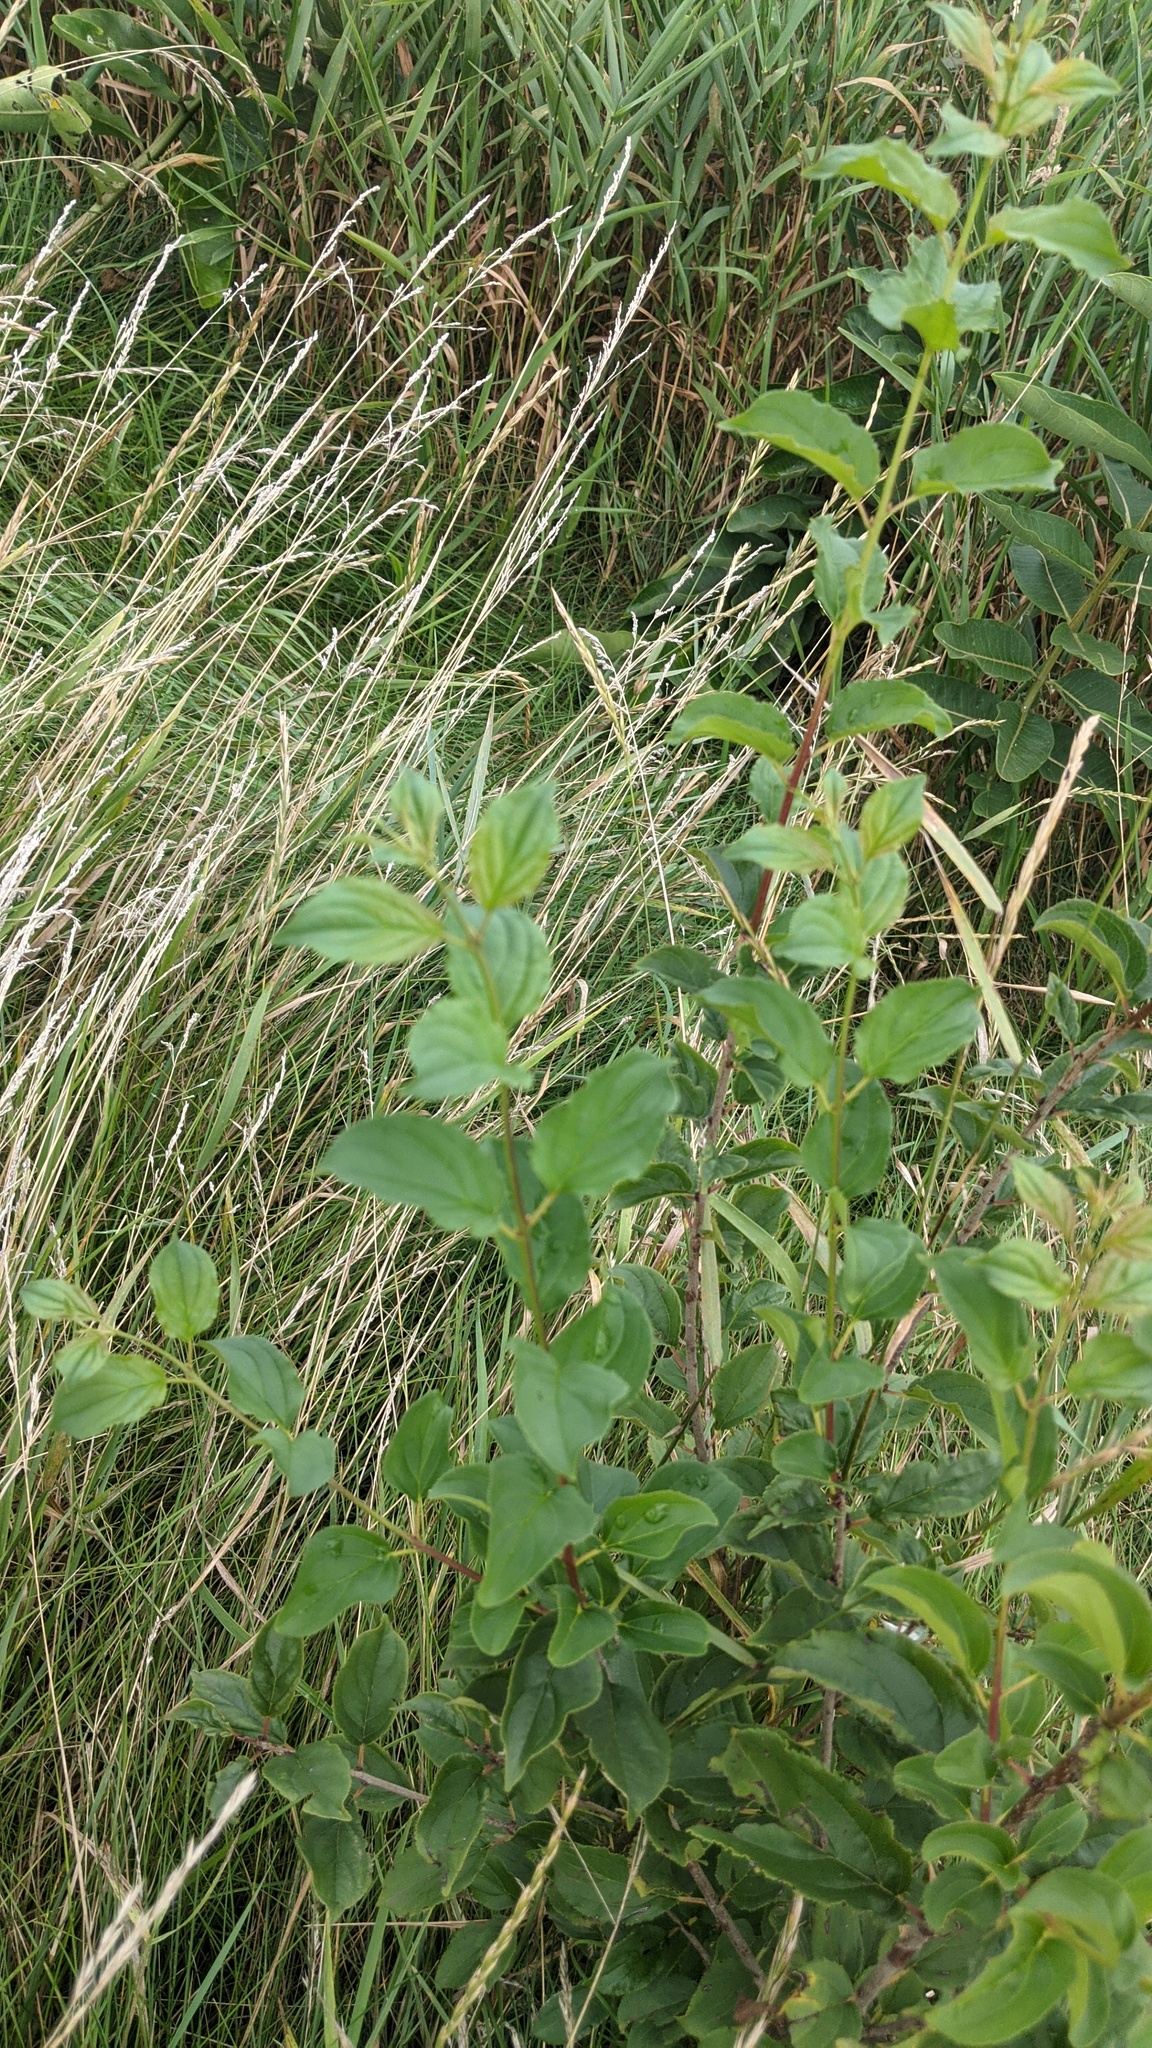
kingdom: Plantae
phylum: Tracheophyta
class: Magnoliopsida
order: Rosales
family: Rhamnaceae
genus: Rhamnus
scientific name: Rhamnus cathartica
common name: Common buckthorn
